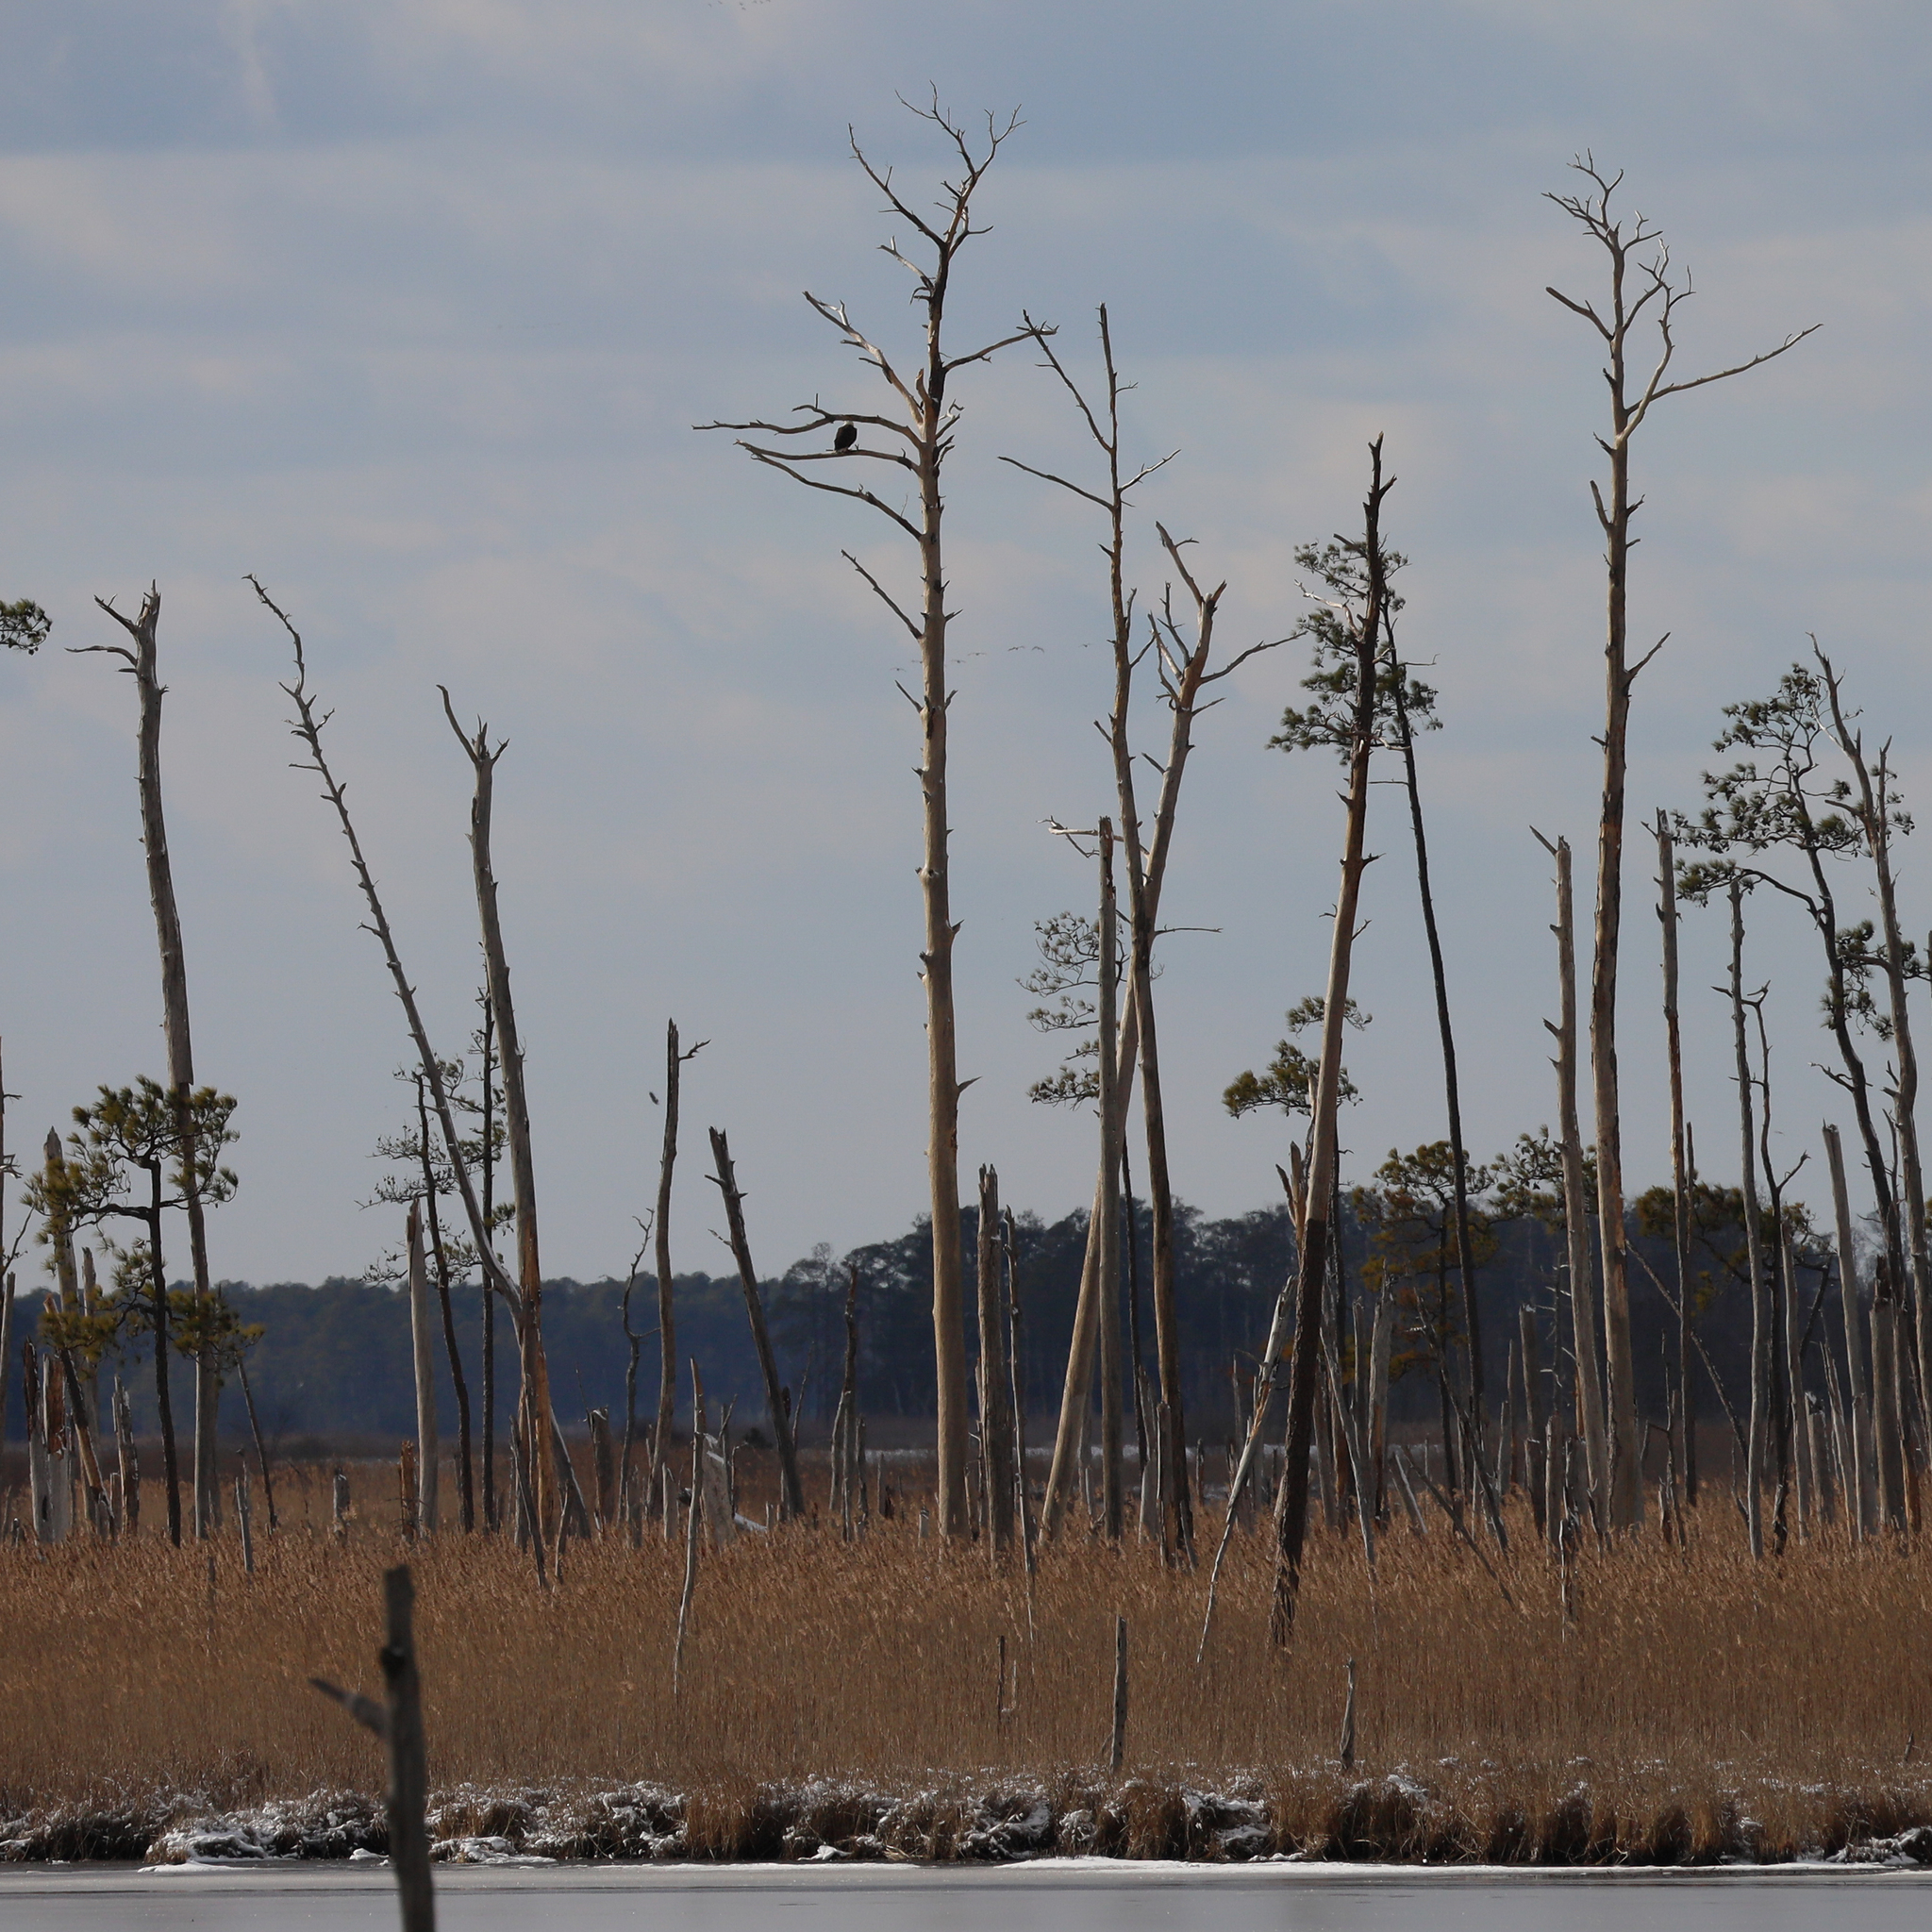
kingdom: Animalia
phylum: Chordata
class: Aves
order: Accipitriformes
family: Accipitridae
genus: Haliaeetus
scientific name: Haliaeetus leucocephalus
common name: Bald eagle
